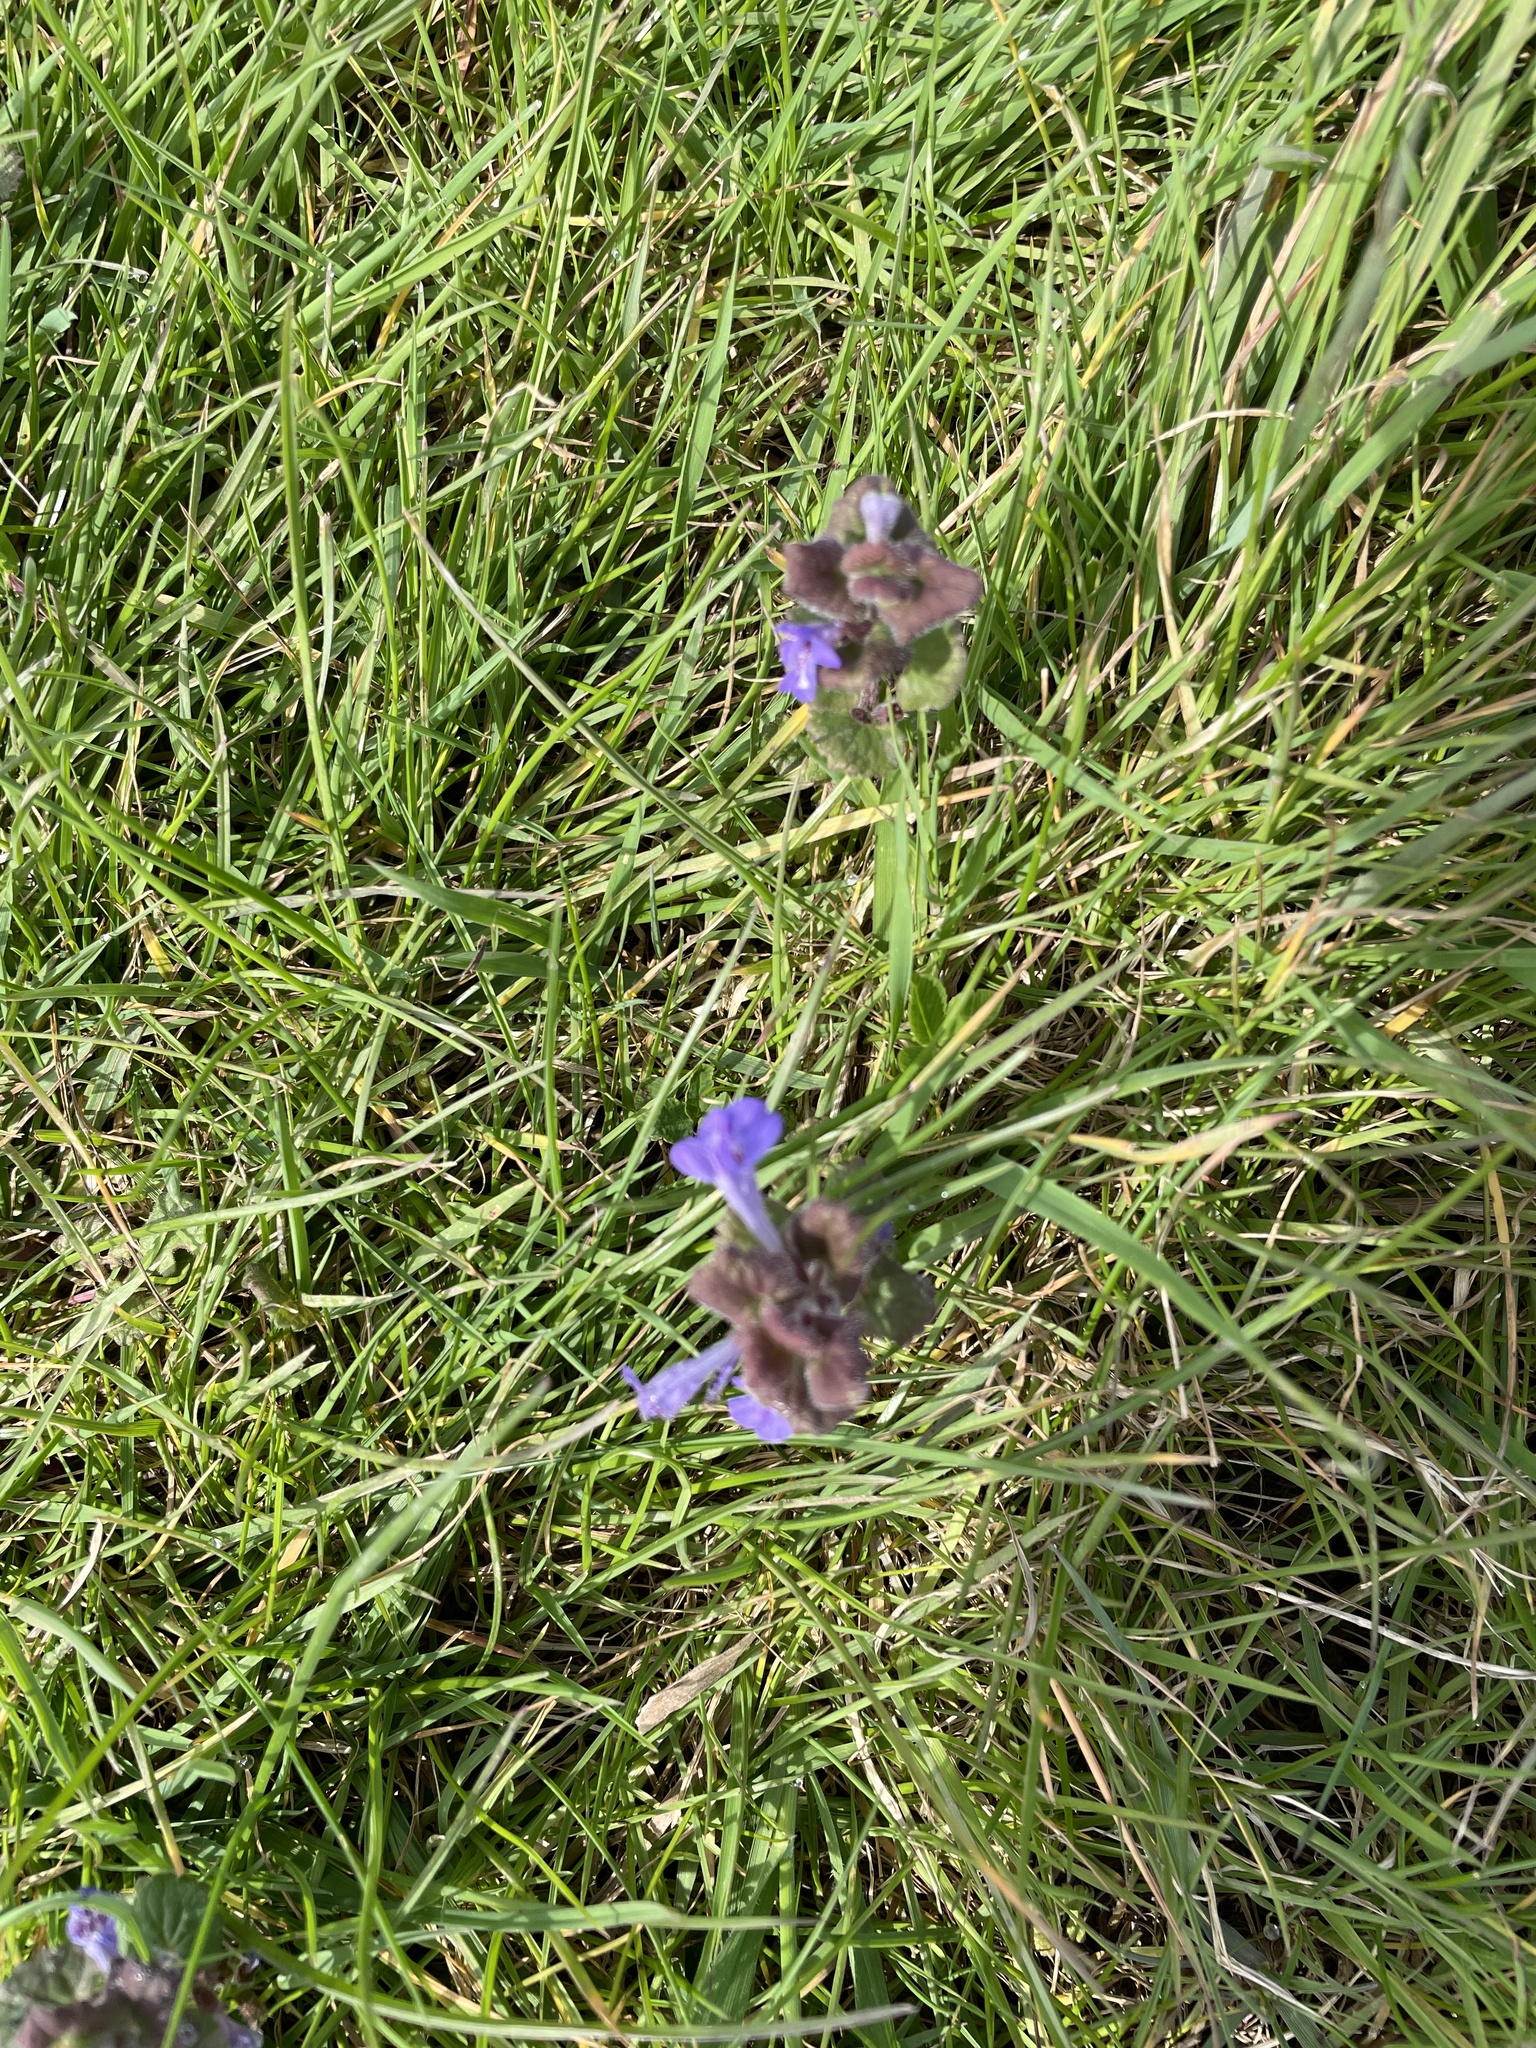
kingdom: Plantae
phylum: Tracheophyta
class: Magnoliopsida
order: Lamiales
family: Lamiaceae
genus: Glechoma
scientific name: Glechoma hederacea
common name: Ground ivy
